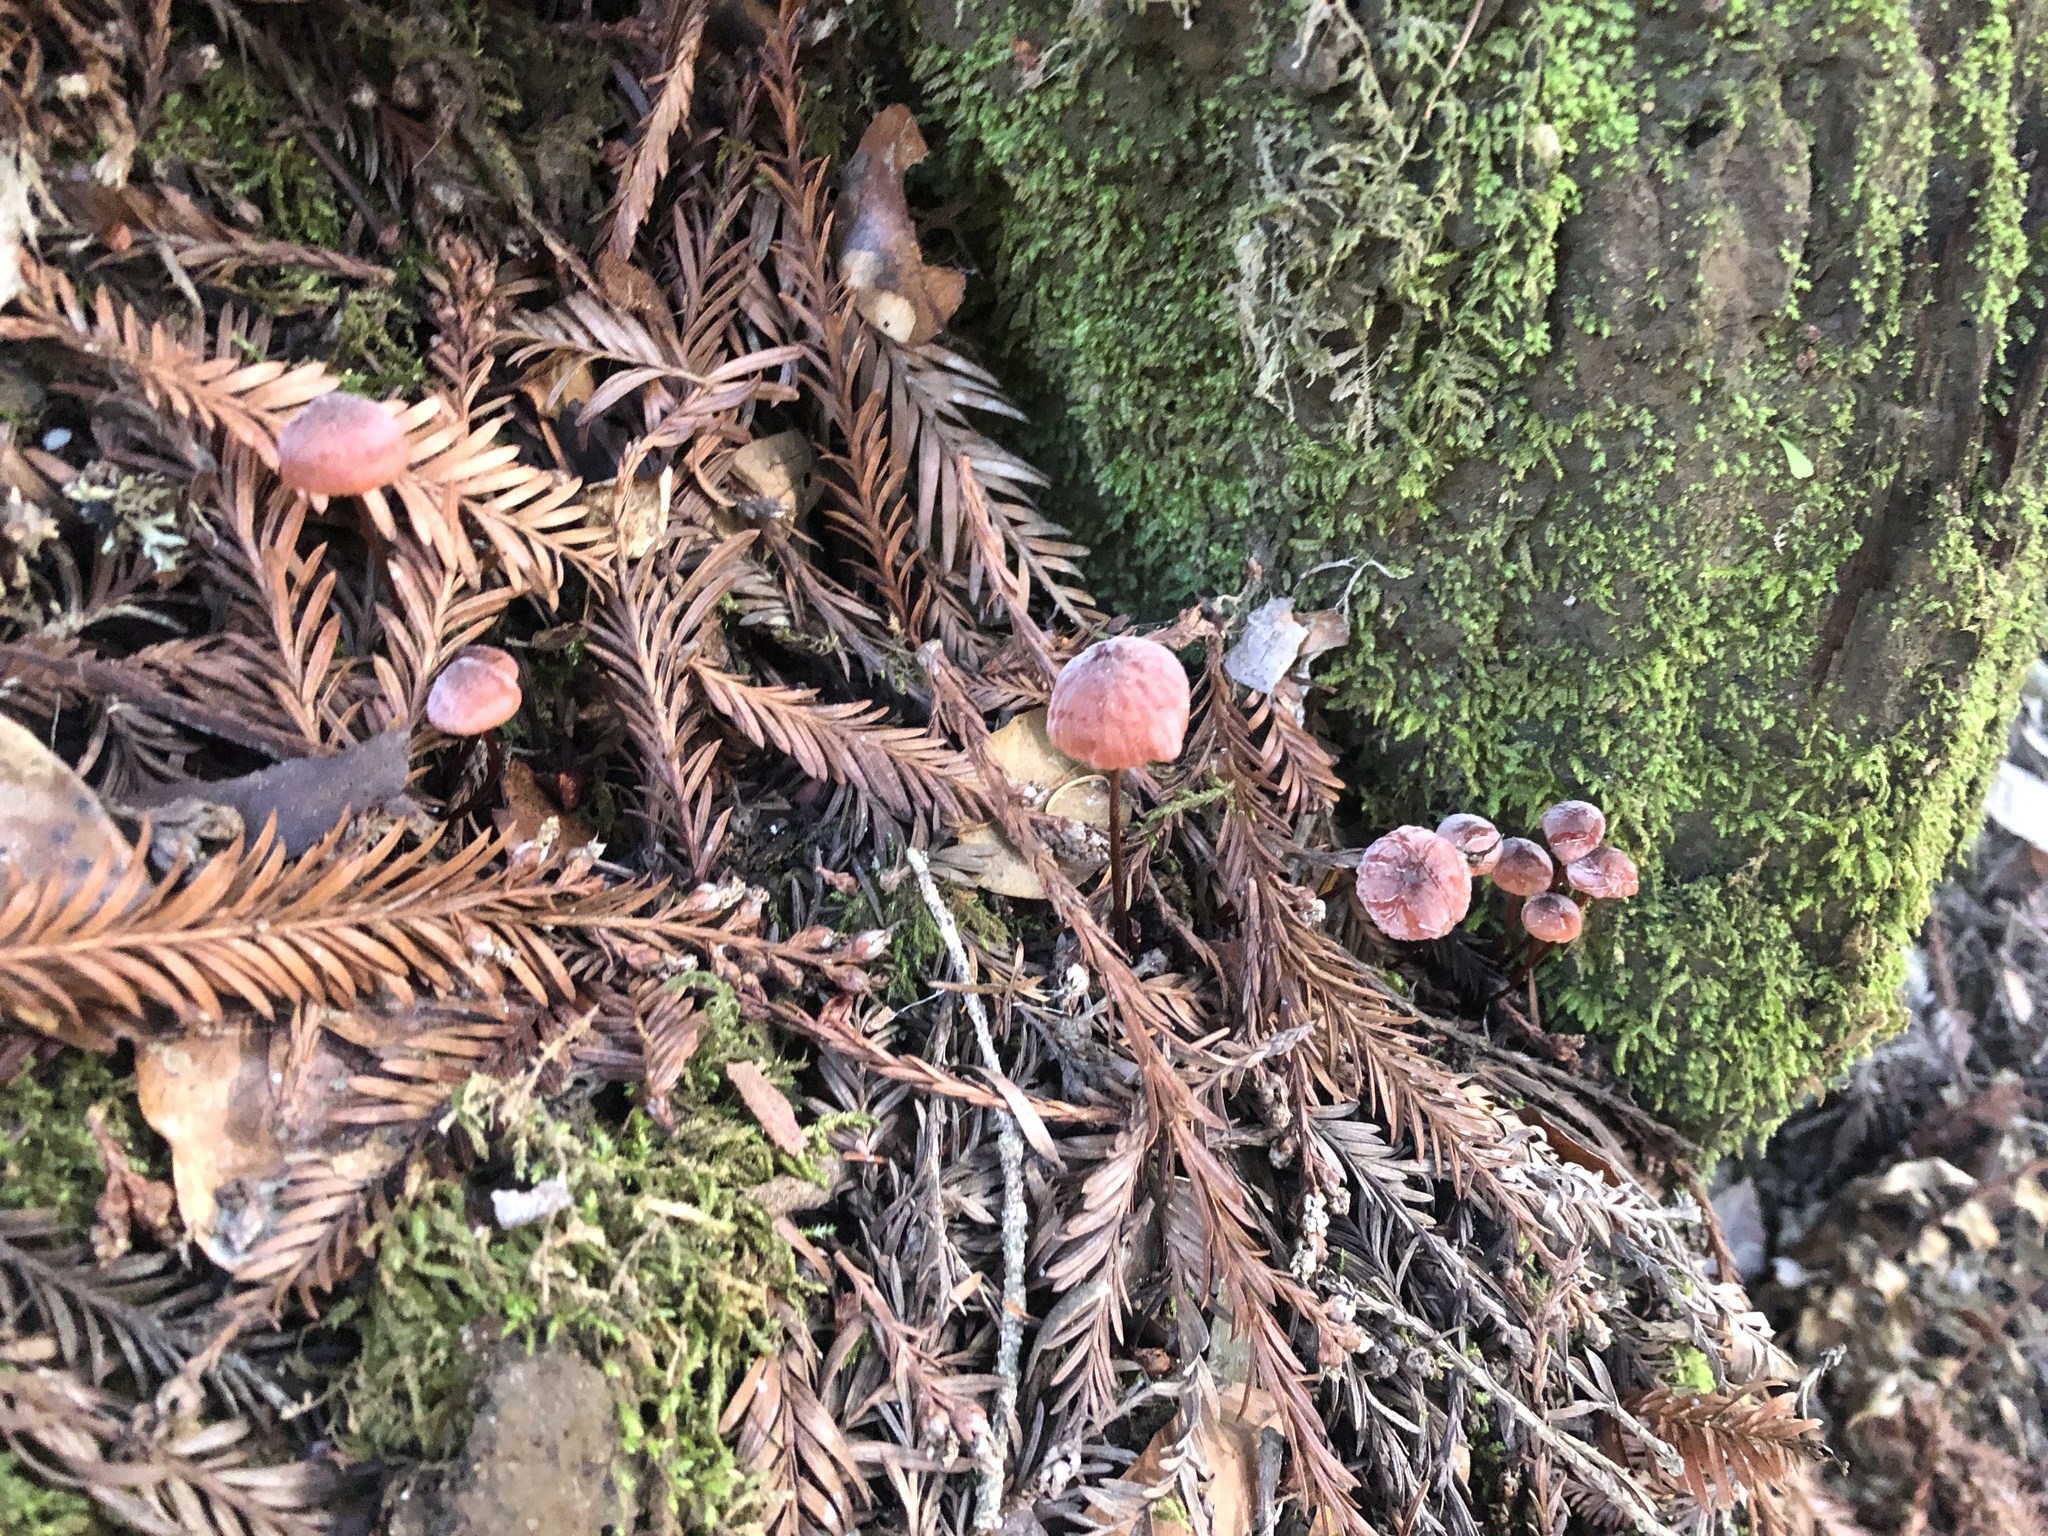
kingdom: Fungi
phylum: Basidiomycota
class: Agaricomycetes
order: Agaricales
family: Mycenaceae
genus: Mycena
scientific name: Mycena haematopus
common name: Burgundydrop bonnet
